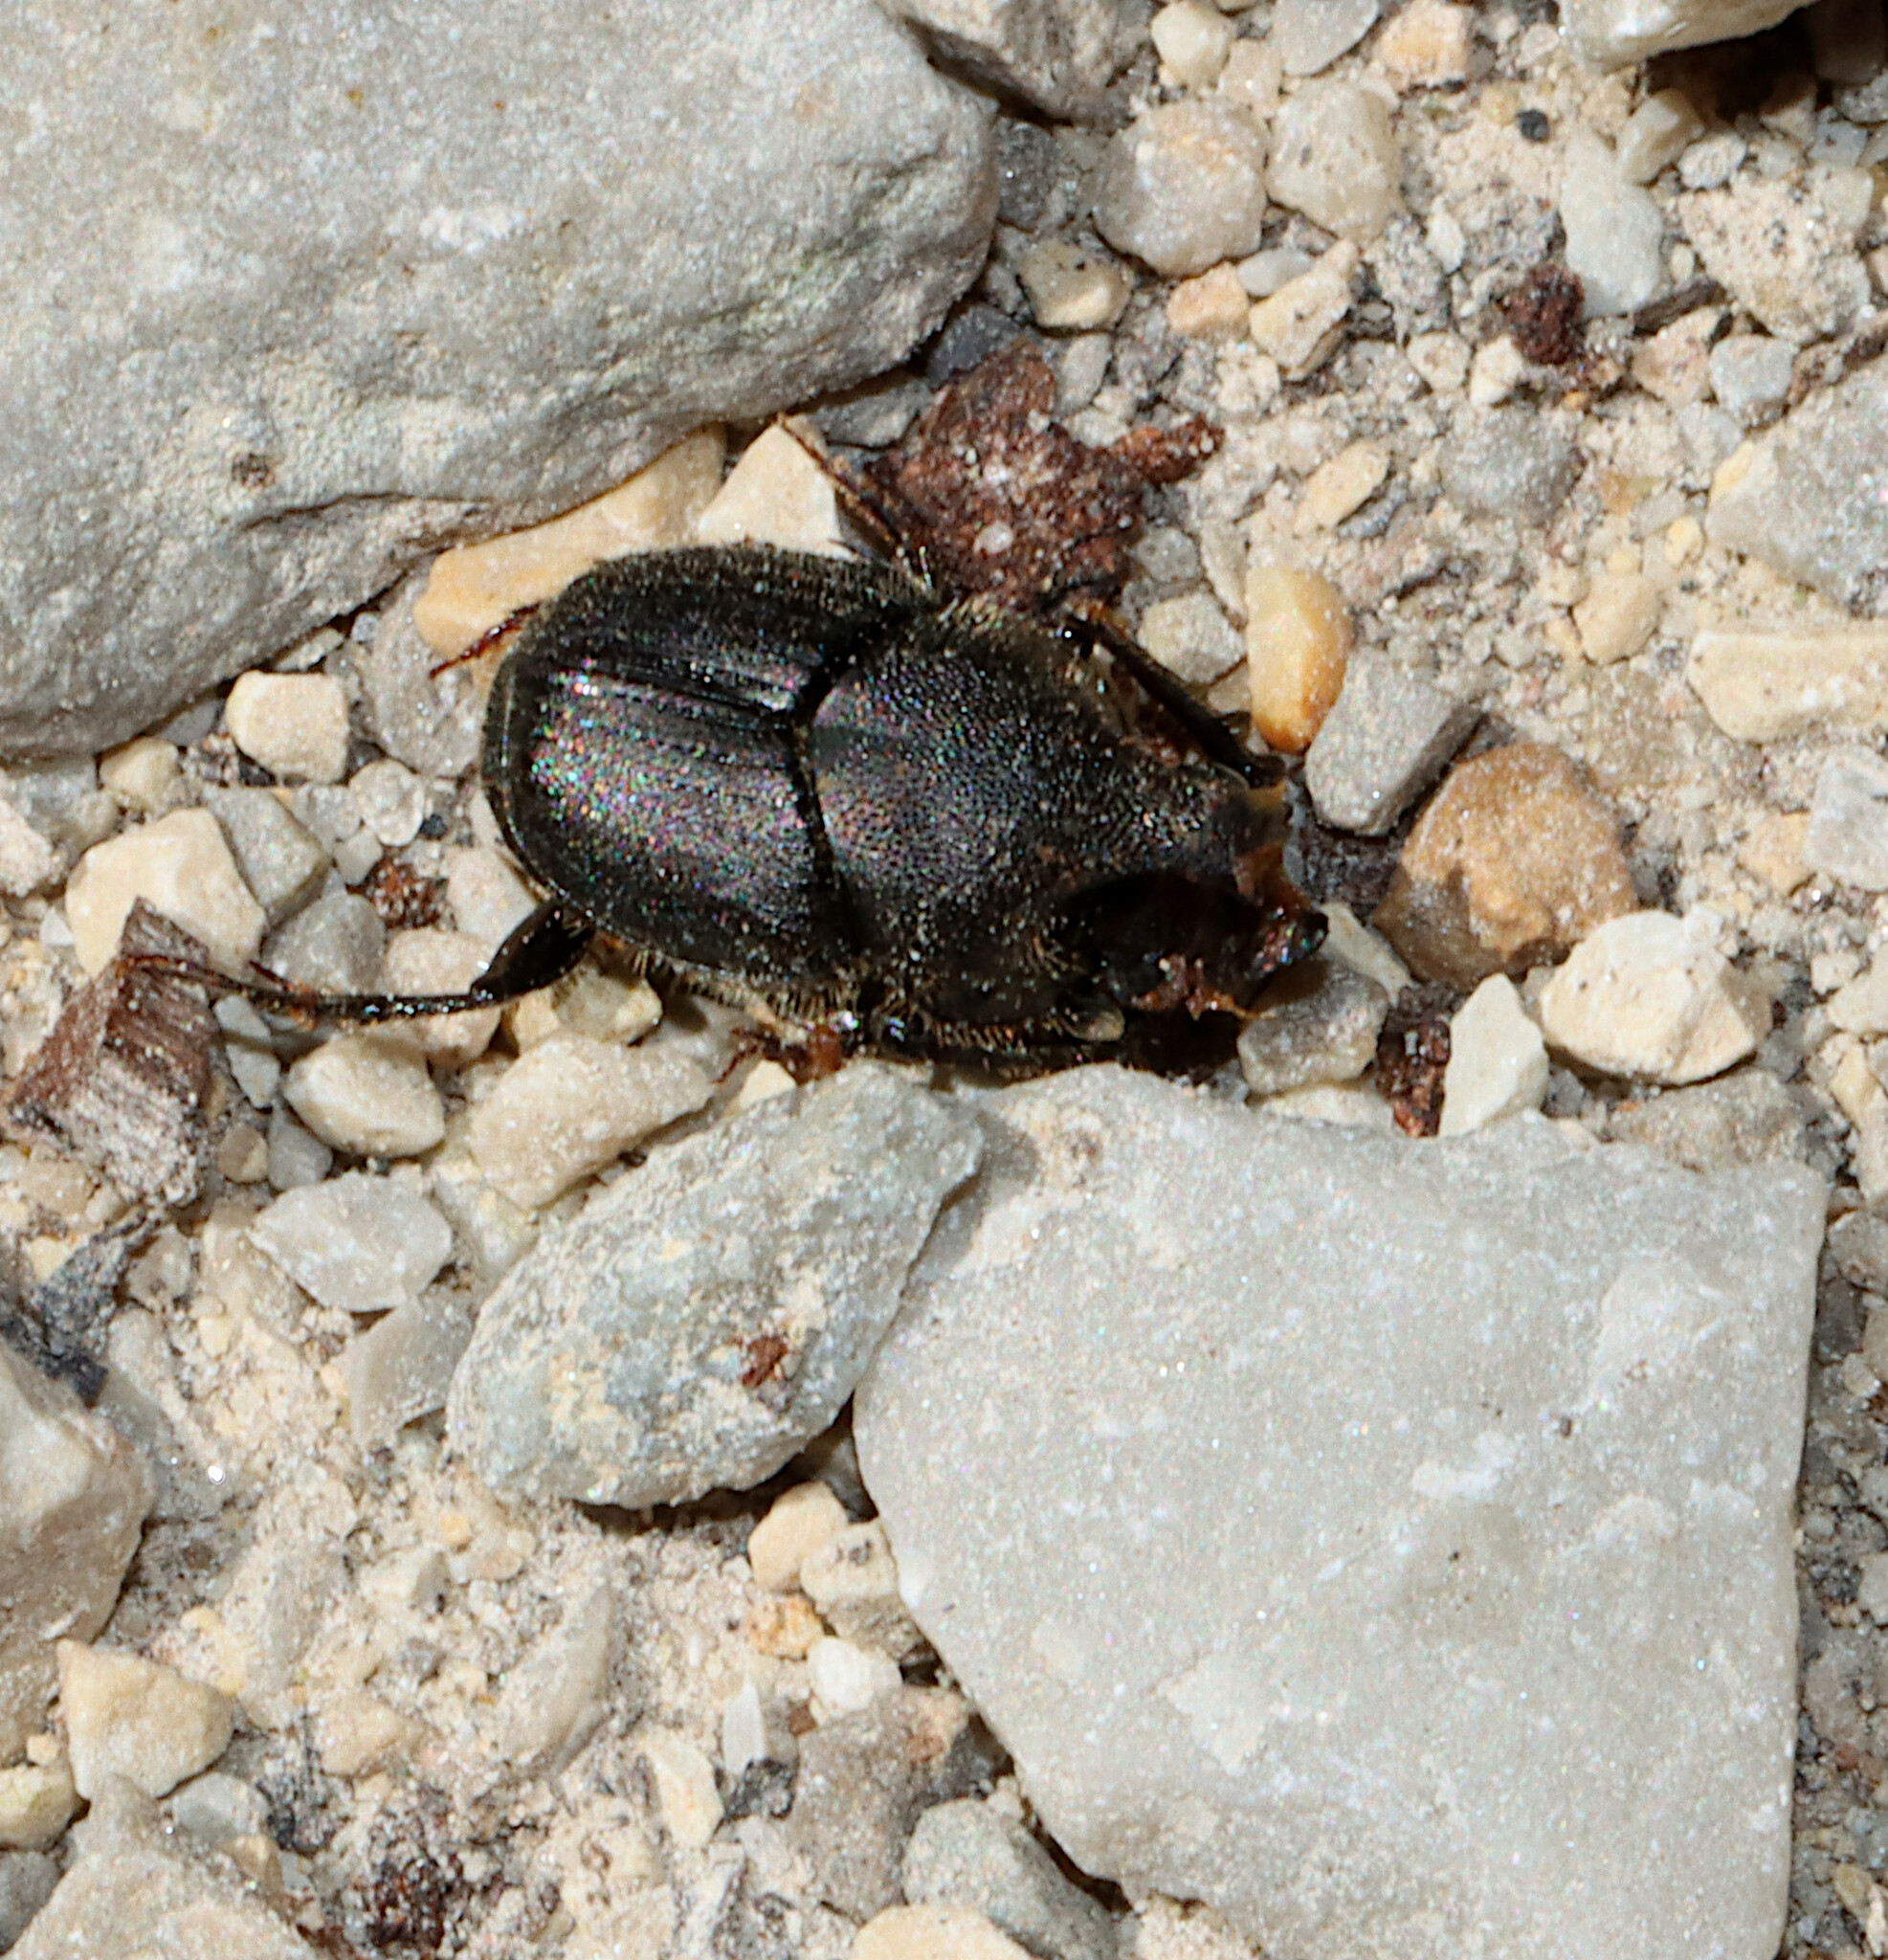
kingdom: Animalia
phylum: Arthropoda
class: Insecta
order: Coleoptera
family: Scarabaeidae
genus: Onthophagus
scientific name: Onthophagus hecate
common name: Scooped scarab
